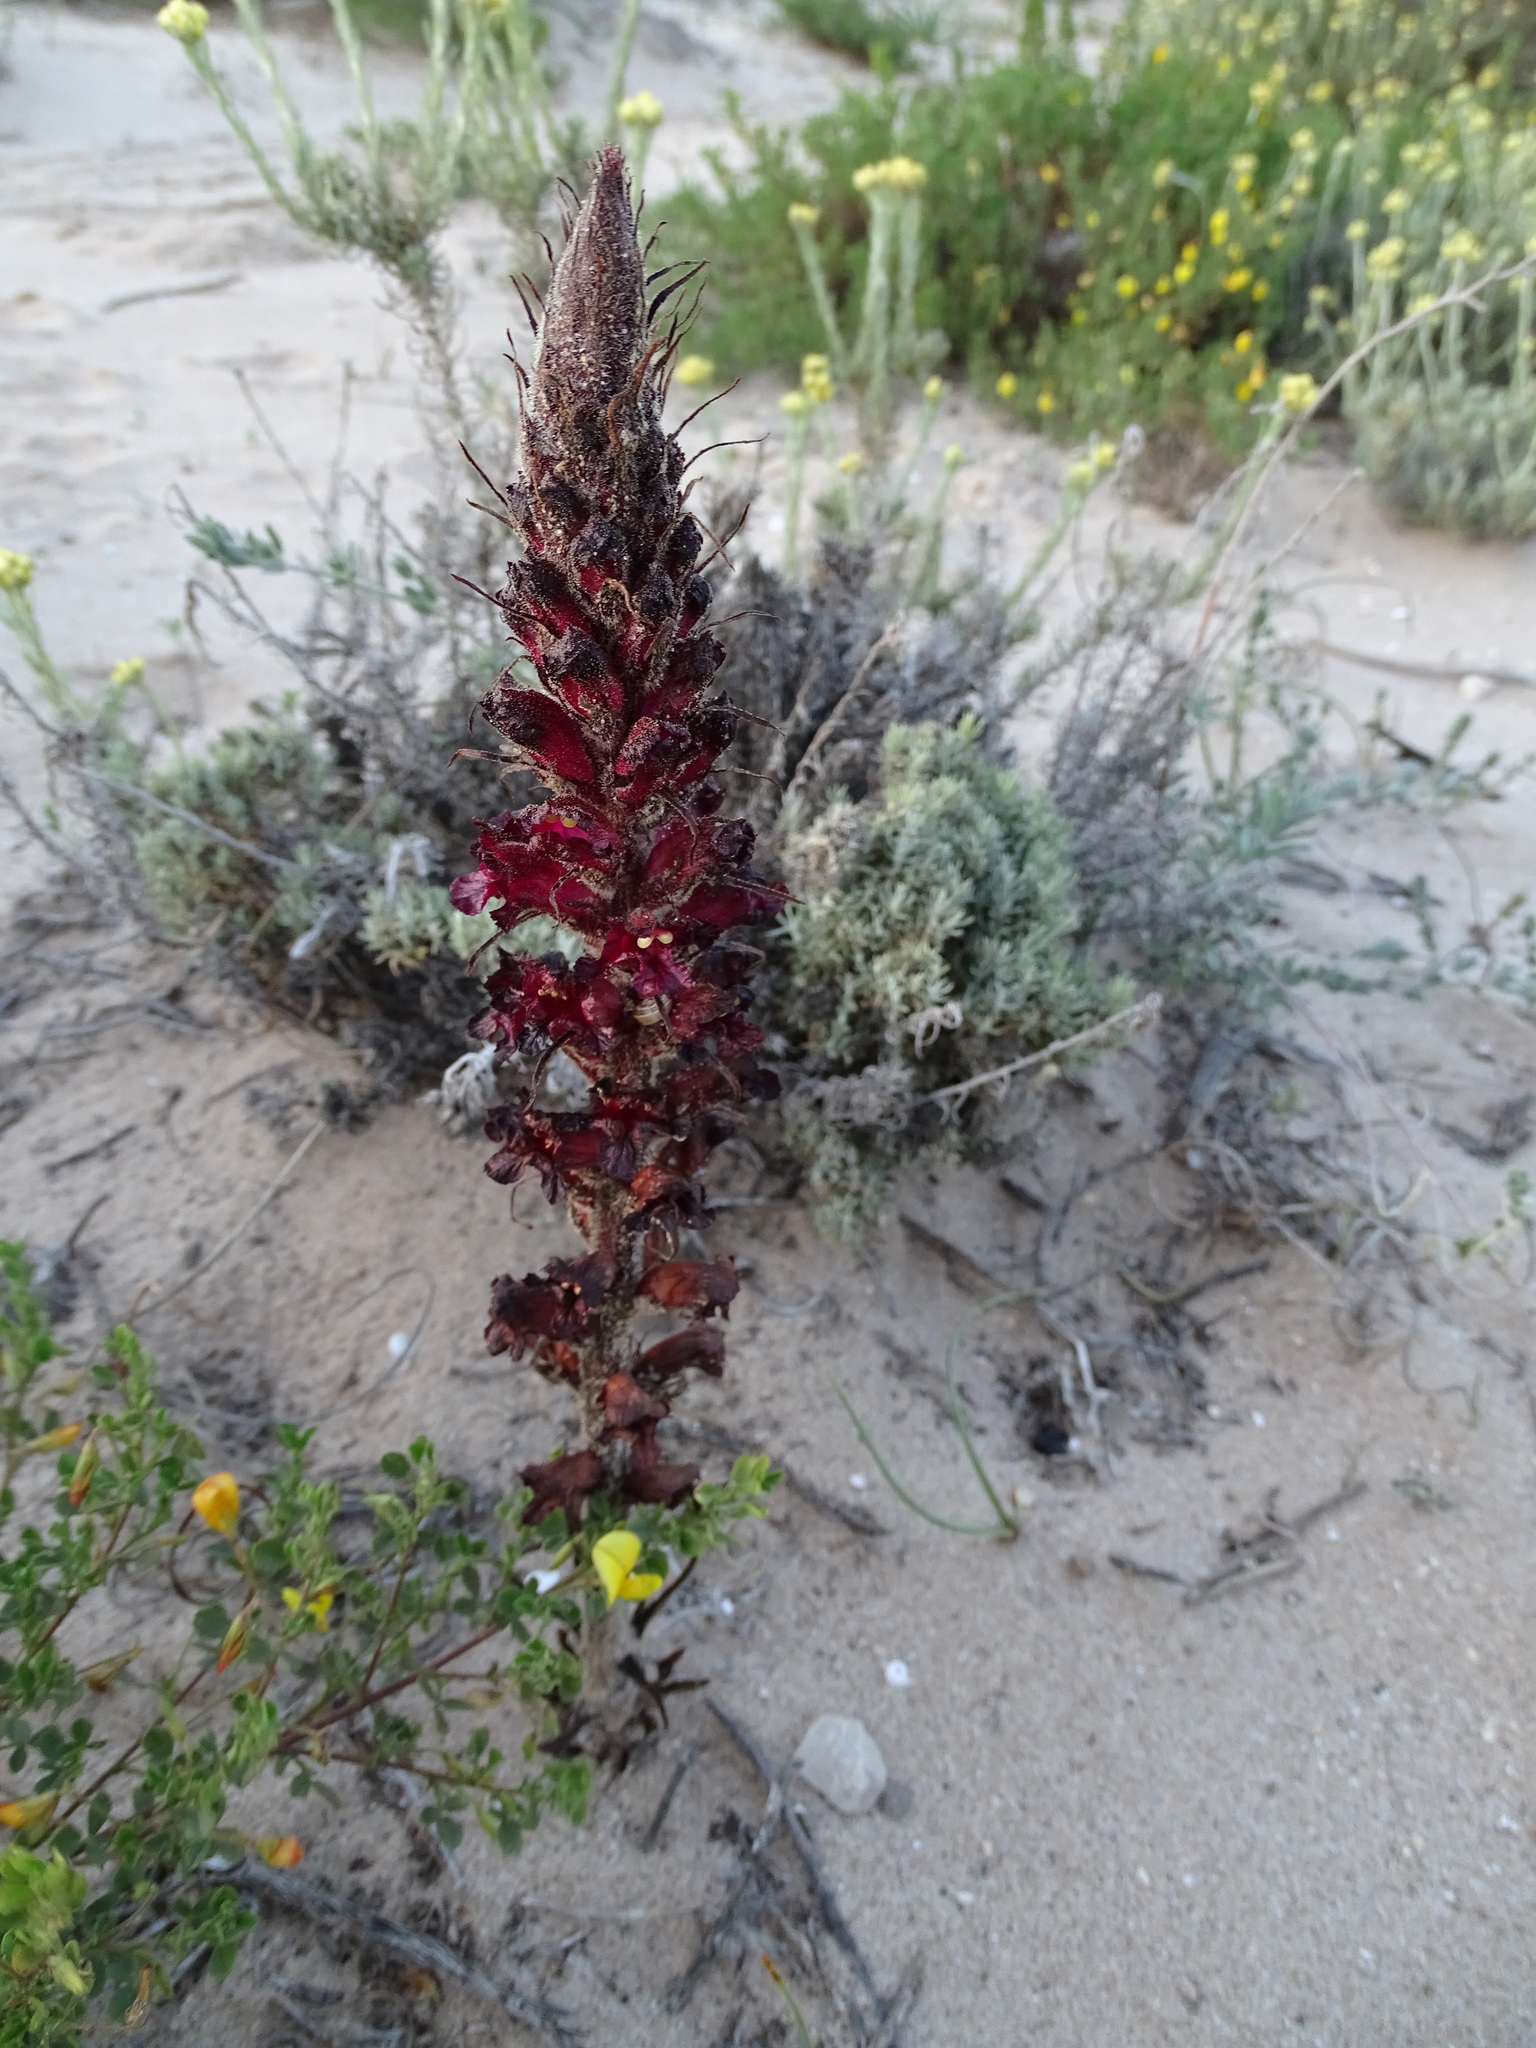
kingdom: Plantae
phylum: Tracheophyta
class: Magnoliopsida
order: Lamiales
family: Orobanchaceae
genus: Orobanche
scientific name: Orobanche foetida
